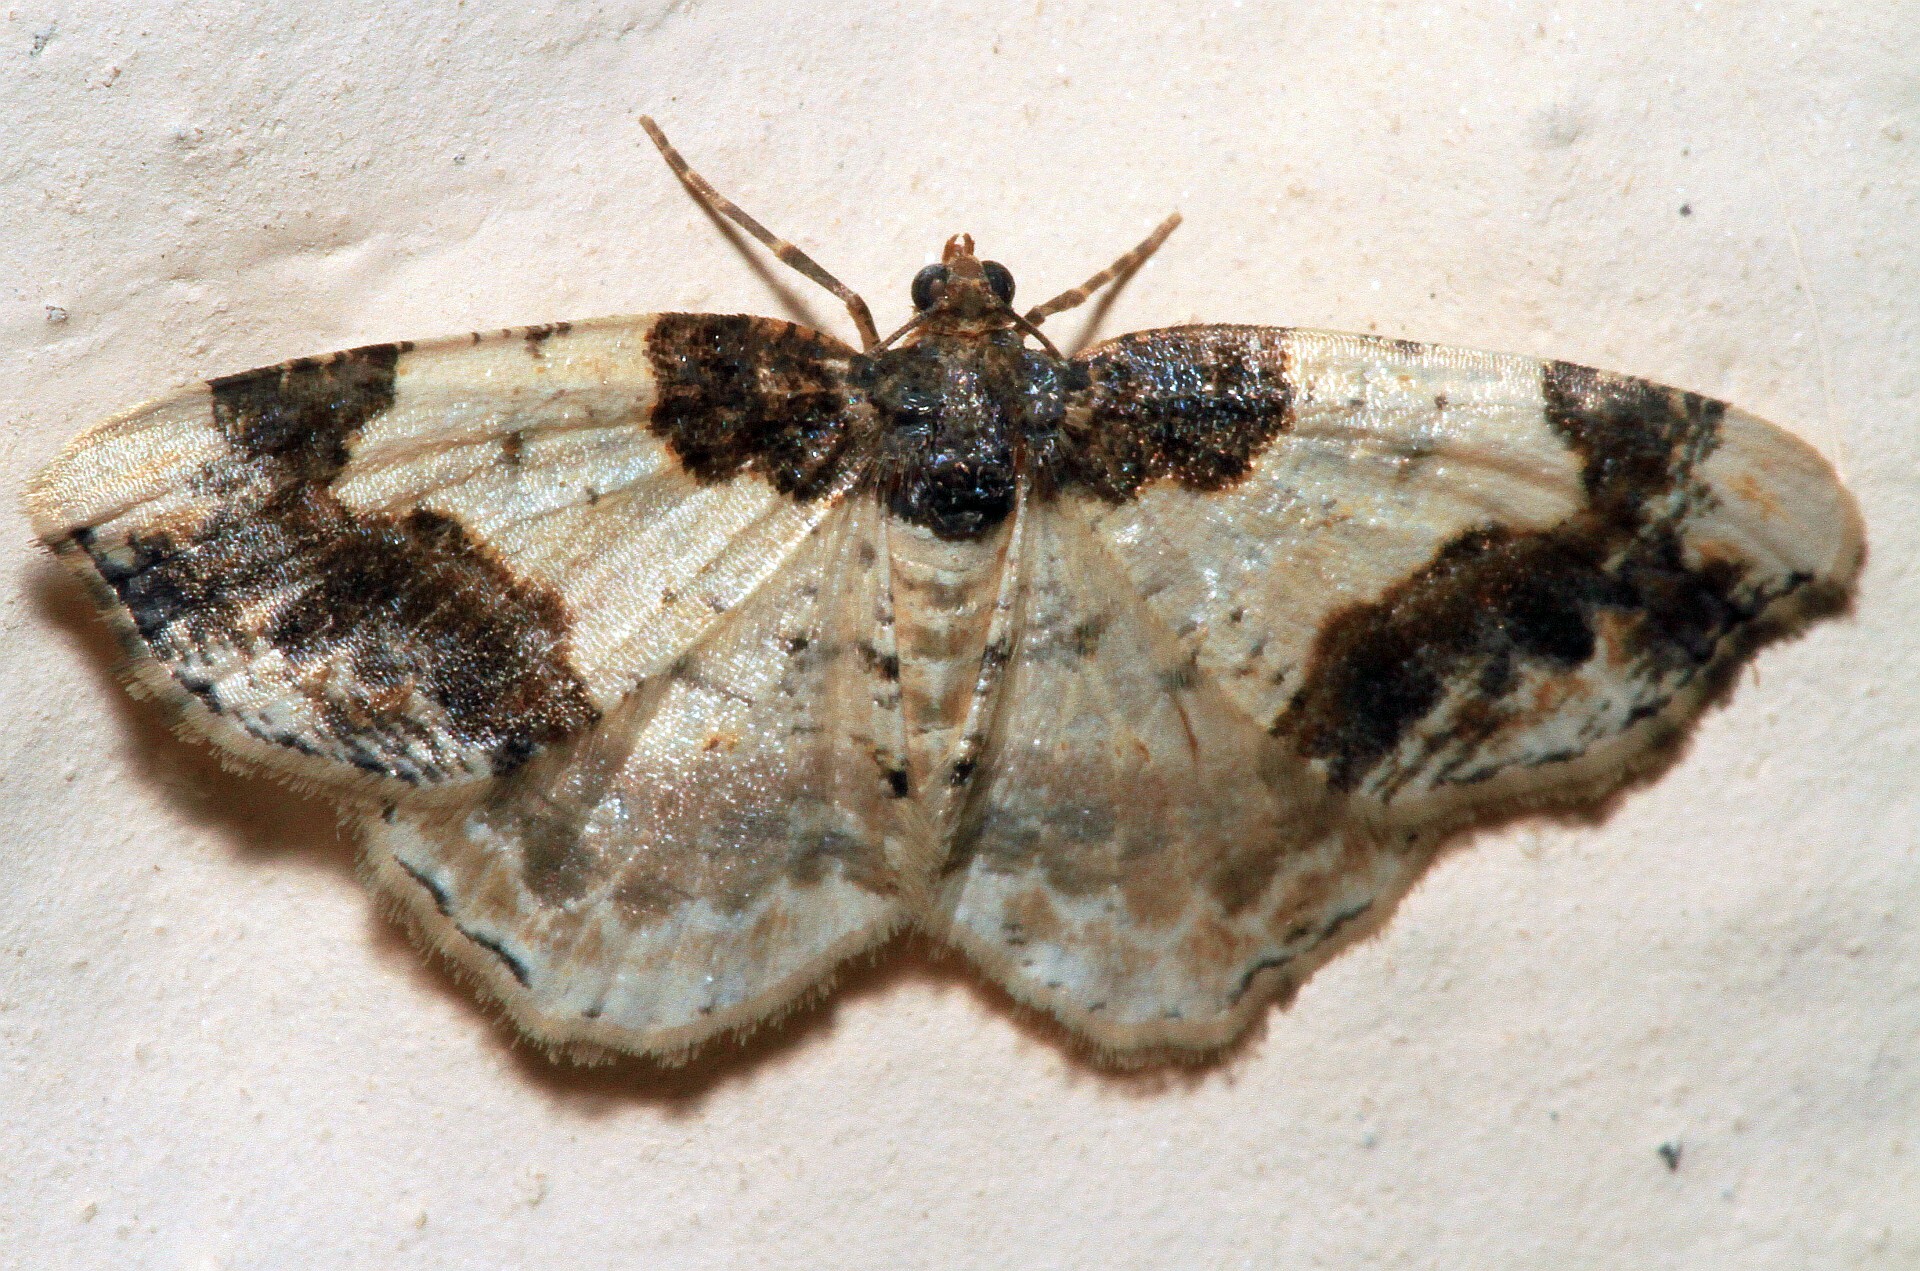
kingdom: Animalia
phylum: Arthropoda
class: Insecta
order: Lepidoptera
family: Geometridae
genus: Ligdia
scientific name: Ligdia adustata
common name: Scorched carpet
